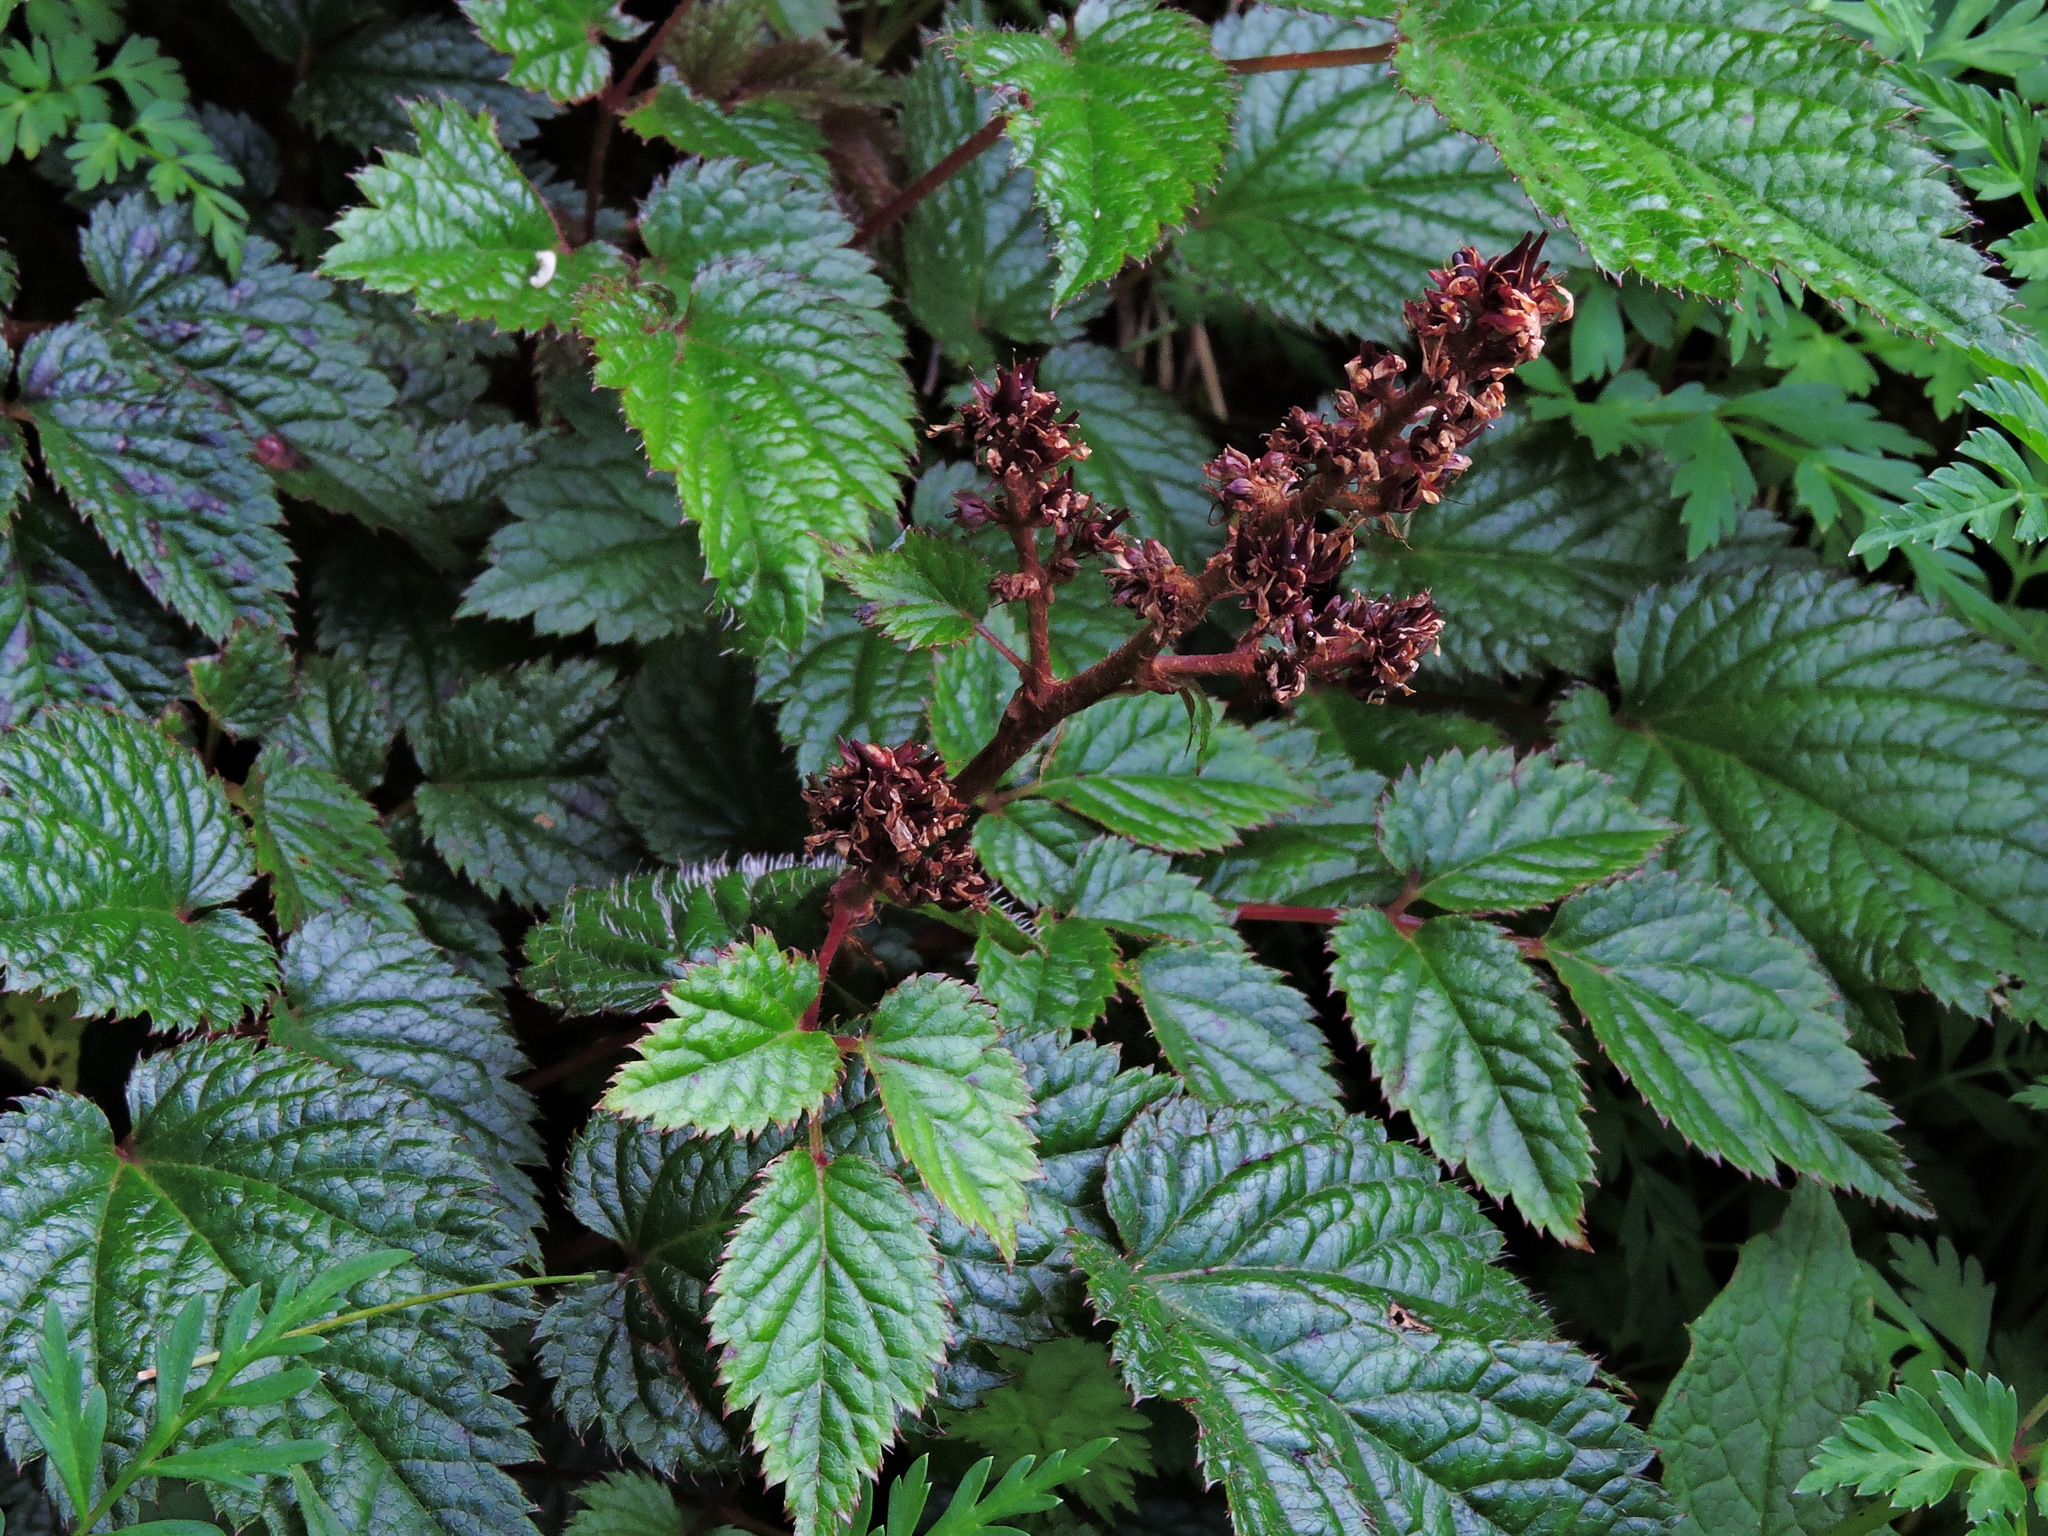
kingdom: Plantae
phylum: Tracheophyta
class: Magnoliopsida
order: Saxifragales
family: Saxifragaceae
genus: Astilbe
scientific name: Astilbe macroflora
